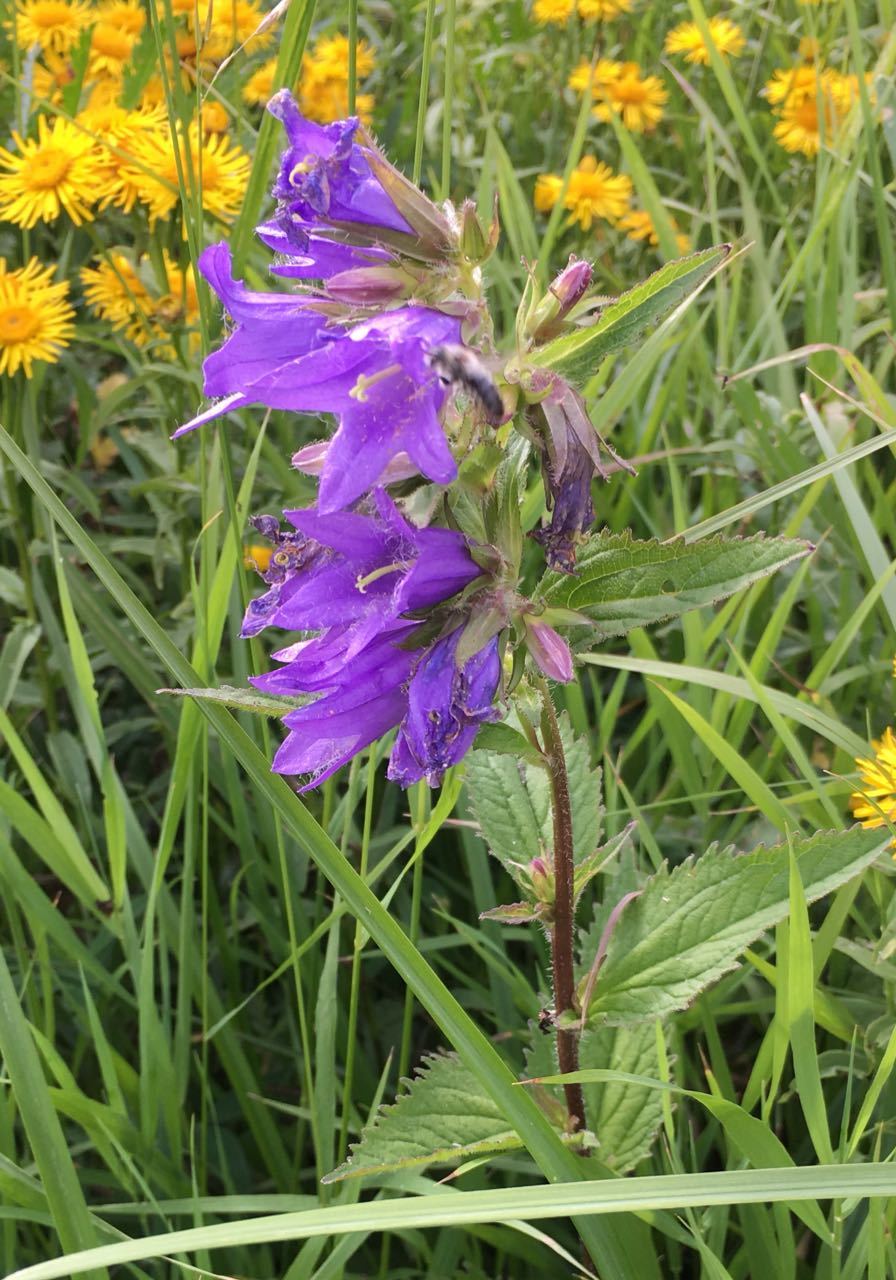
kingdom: Plantae
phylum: Tracheophyta
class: Magnoliopsida
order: Asterales
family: Campanulaceae
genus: Campanula
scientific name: Campanula trachelium
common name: Nettle-leaved bellflower
